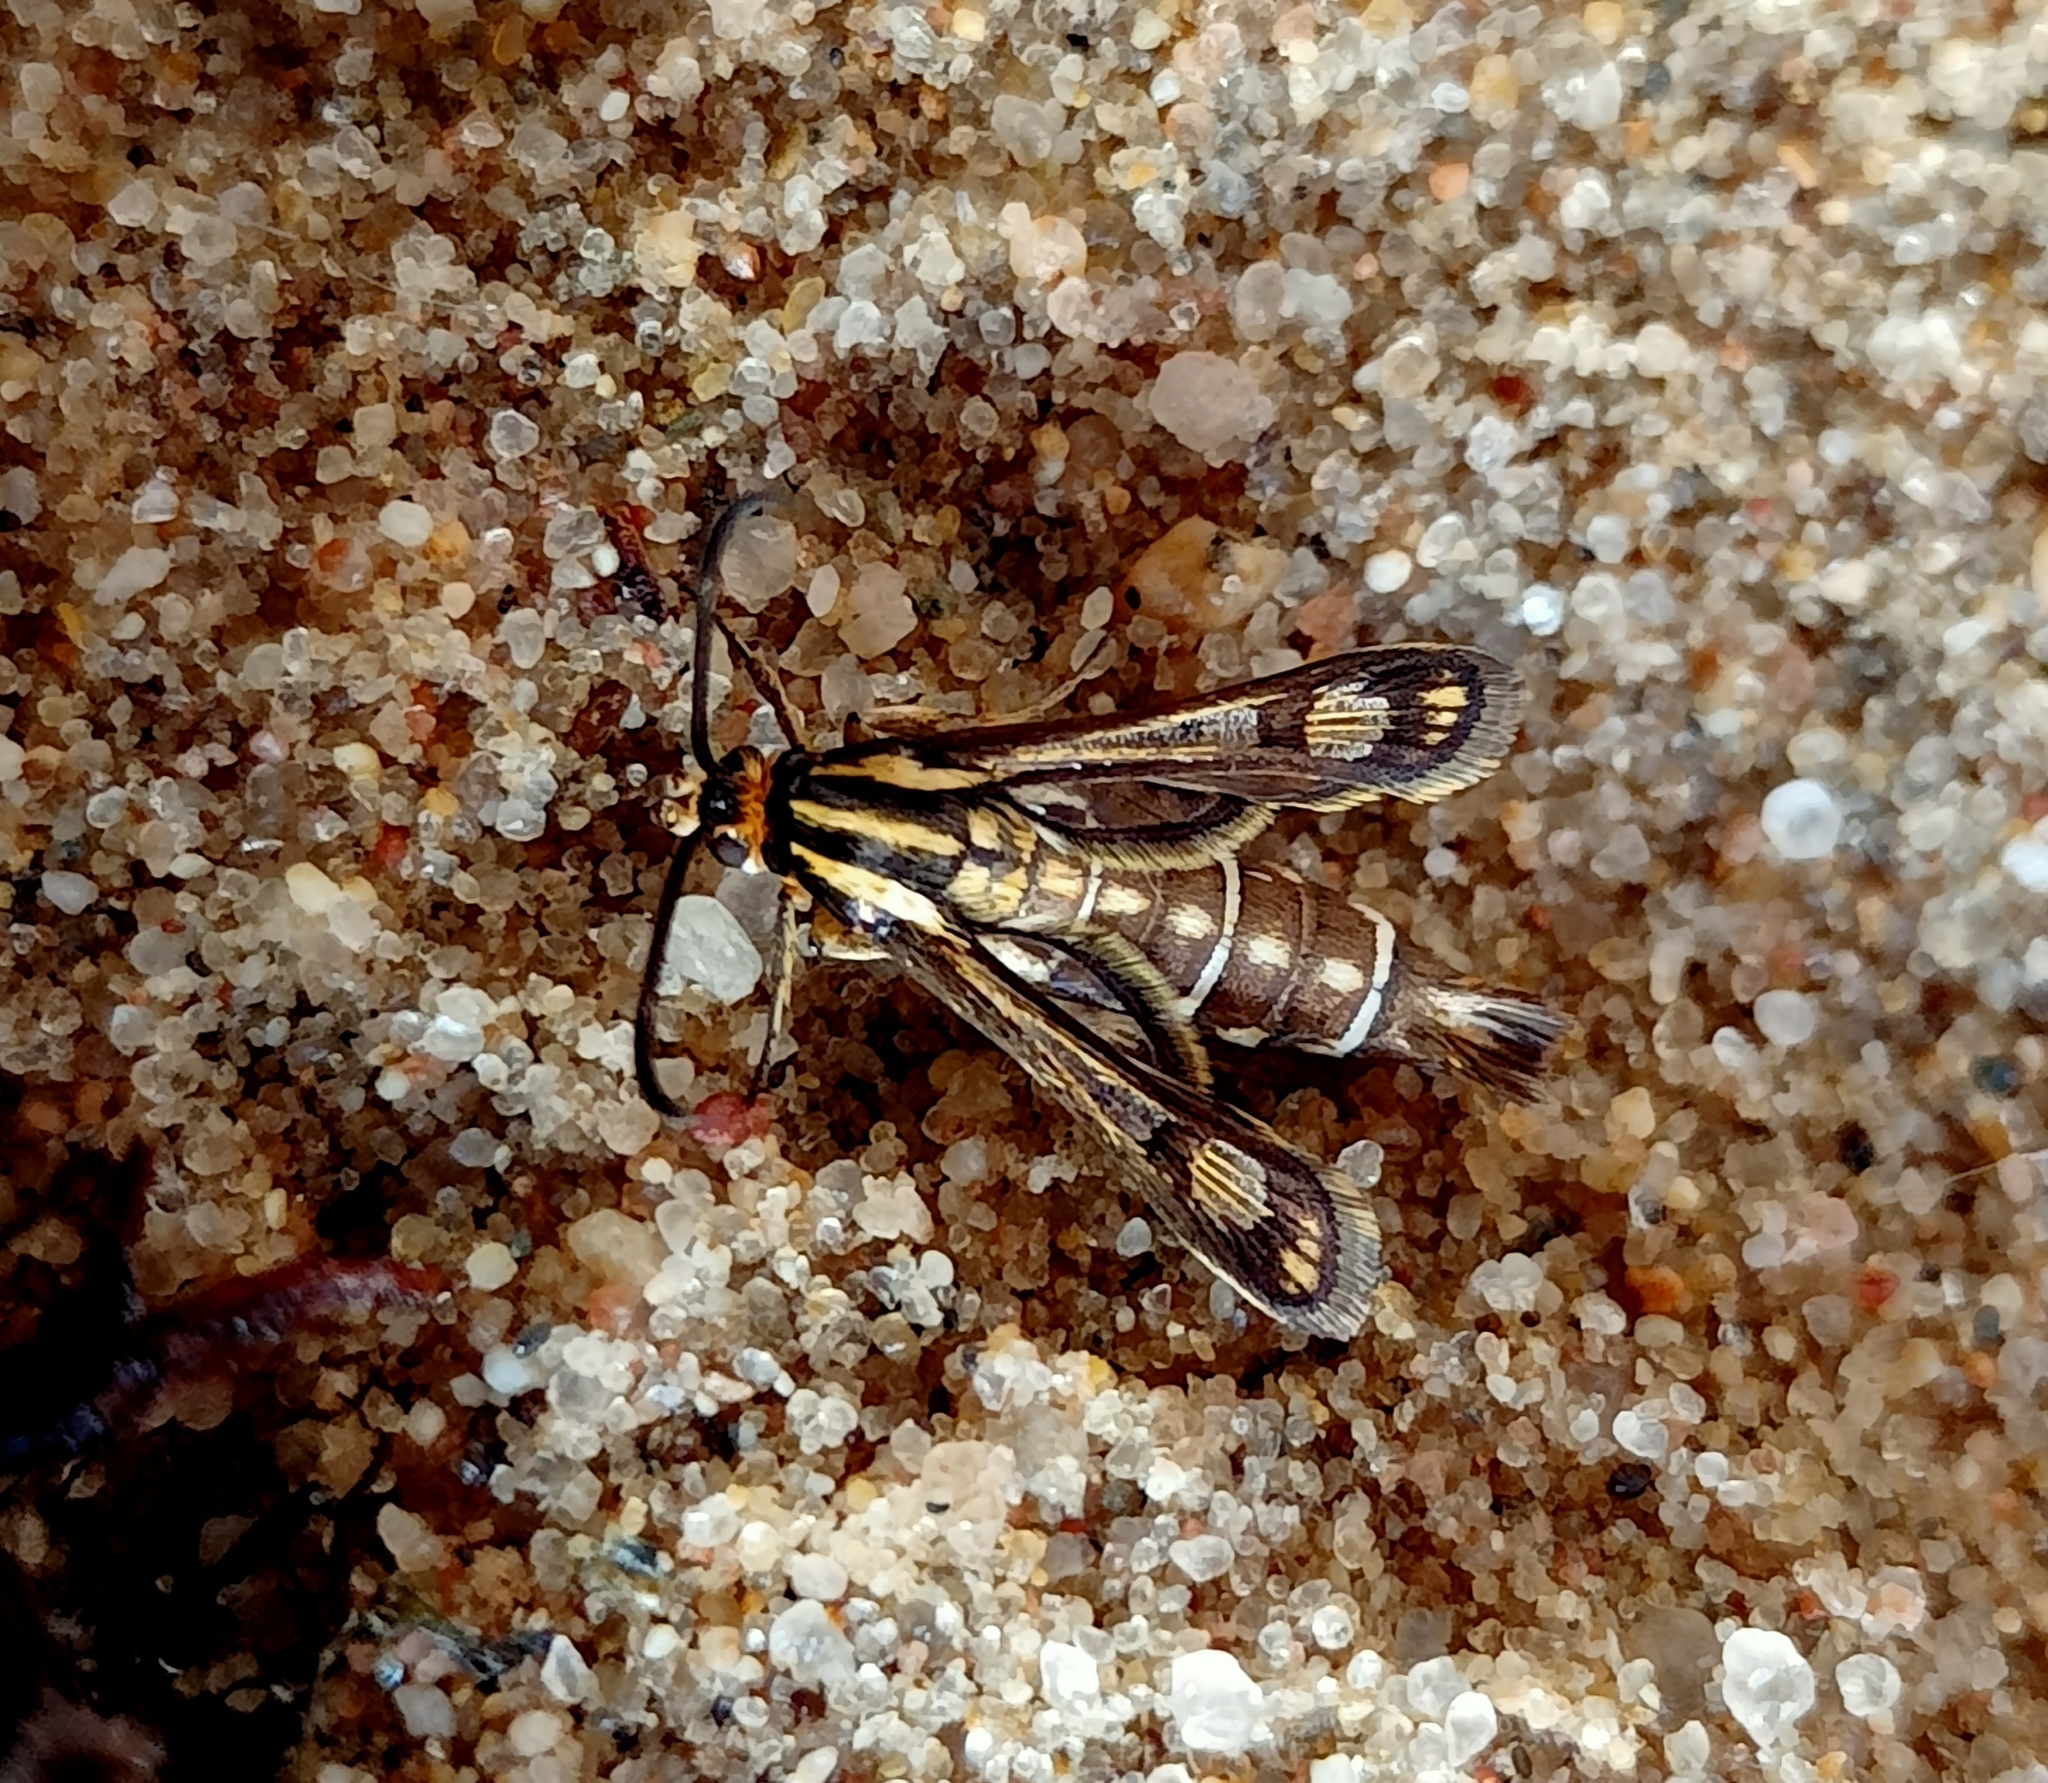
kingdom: Animalia
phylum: Arthropoda
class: Insecta
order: Lepidoptera
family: Sesiidae
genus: Pyropteron
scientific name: Pyropteron triannuliformis
